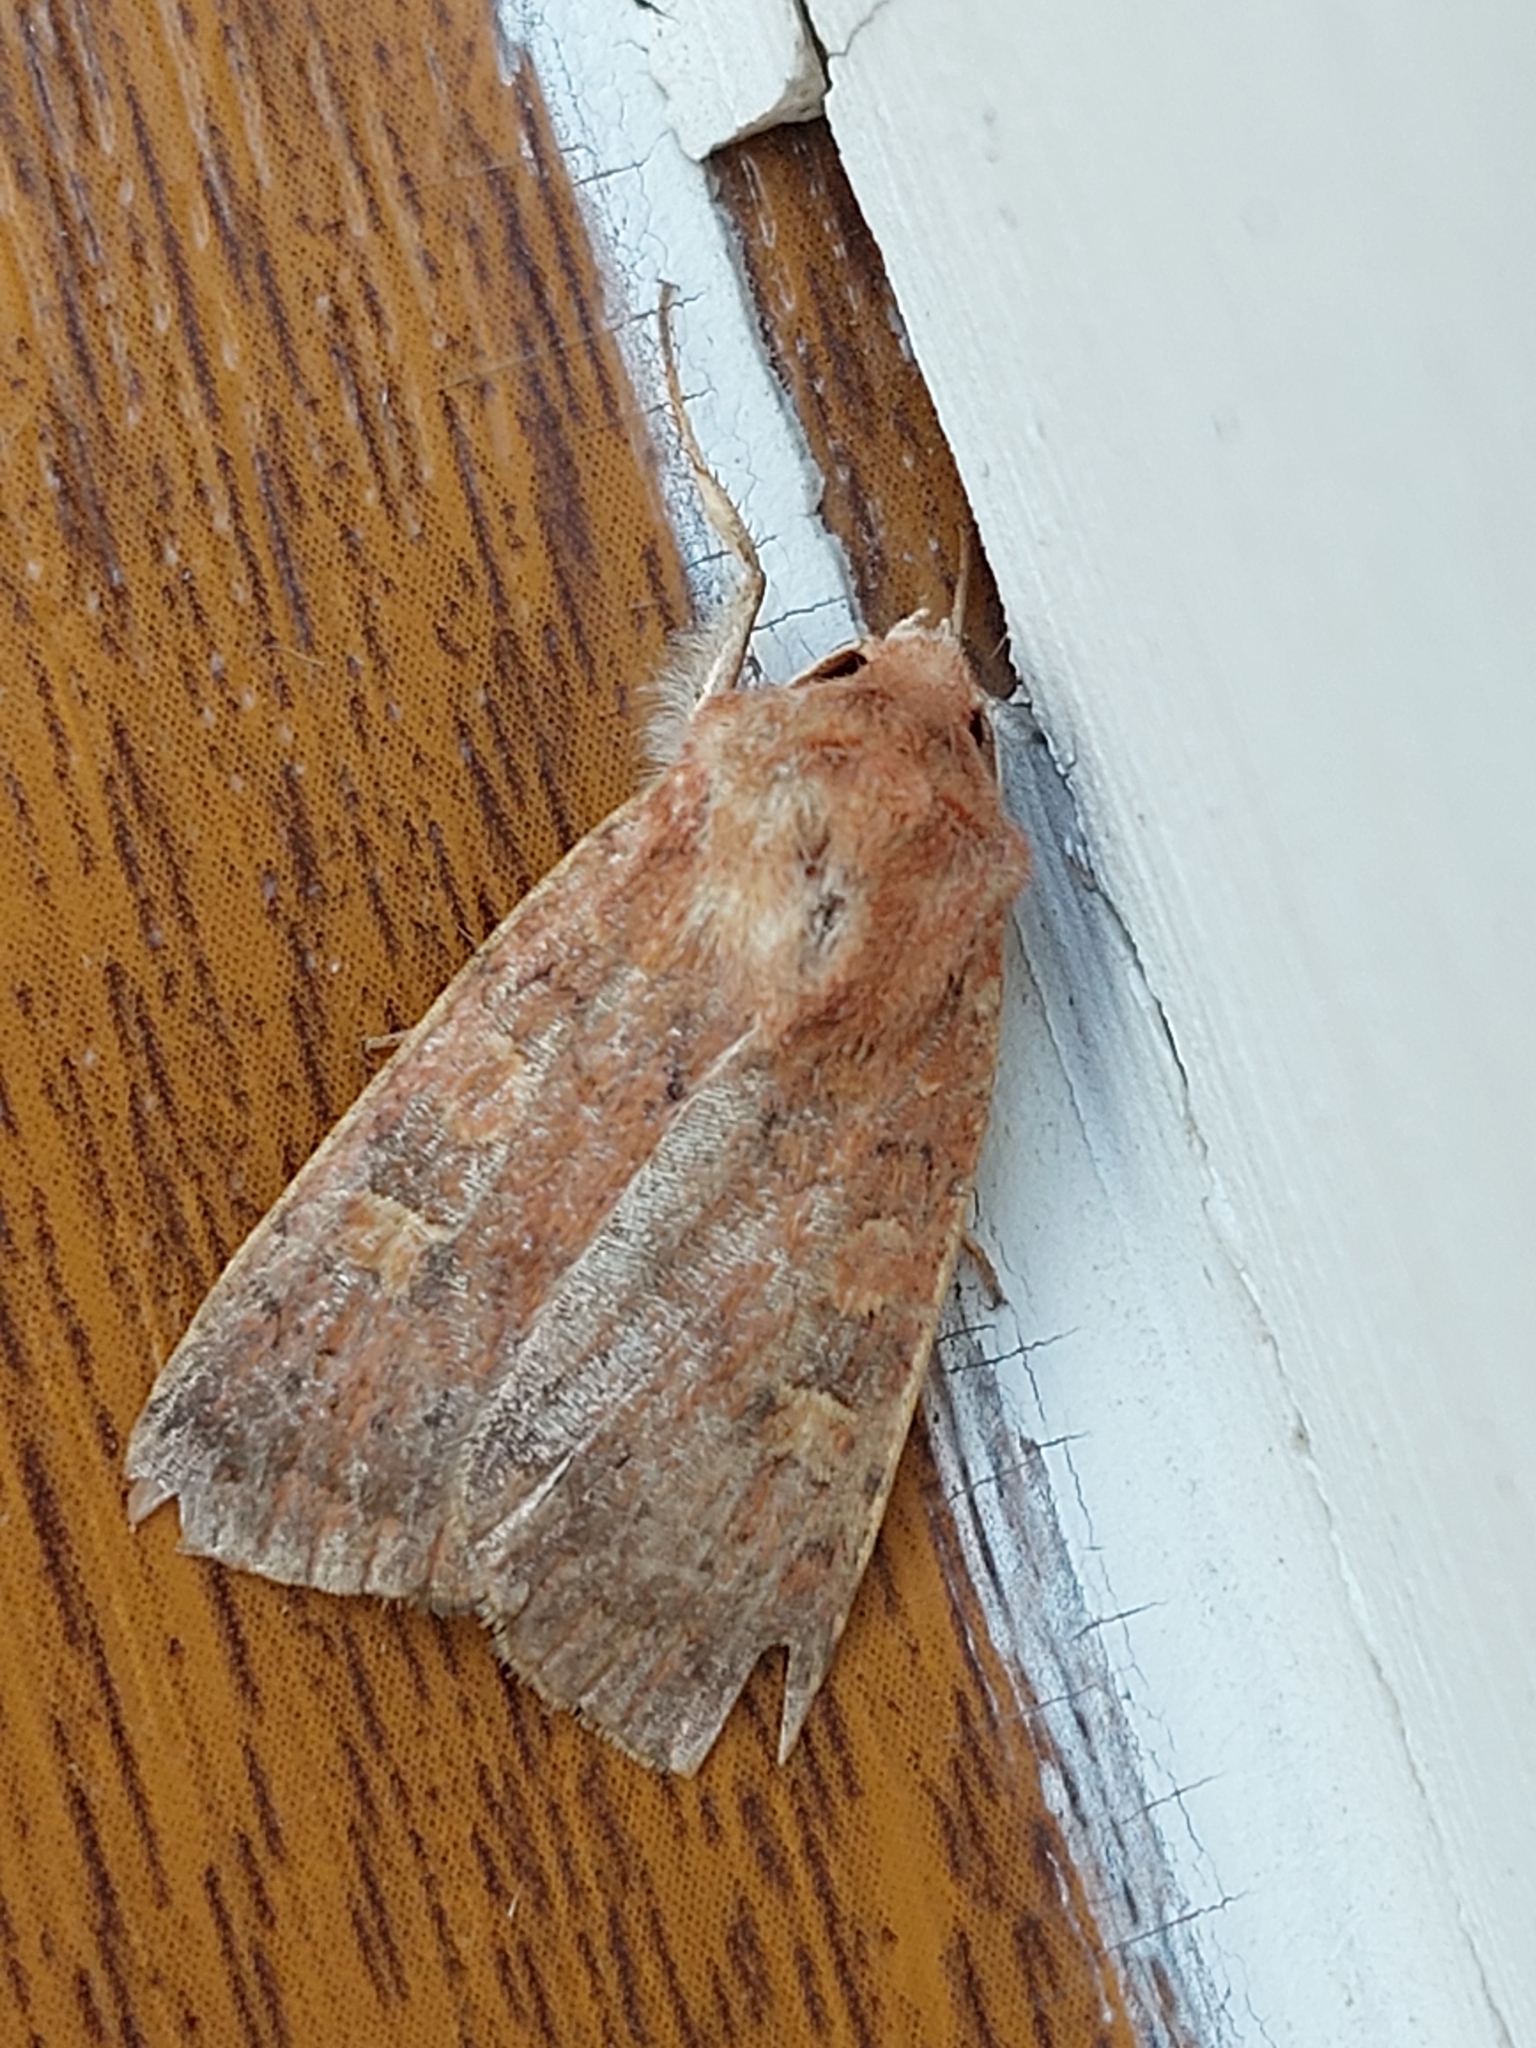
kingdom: Animalia
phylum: Arthropoda
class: Insecta
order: Lepidoptera
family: Noctuidae
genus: Xestia
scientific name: Xestia xanthographa
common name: Square-spot rustic
